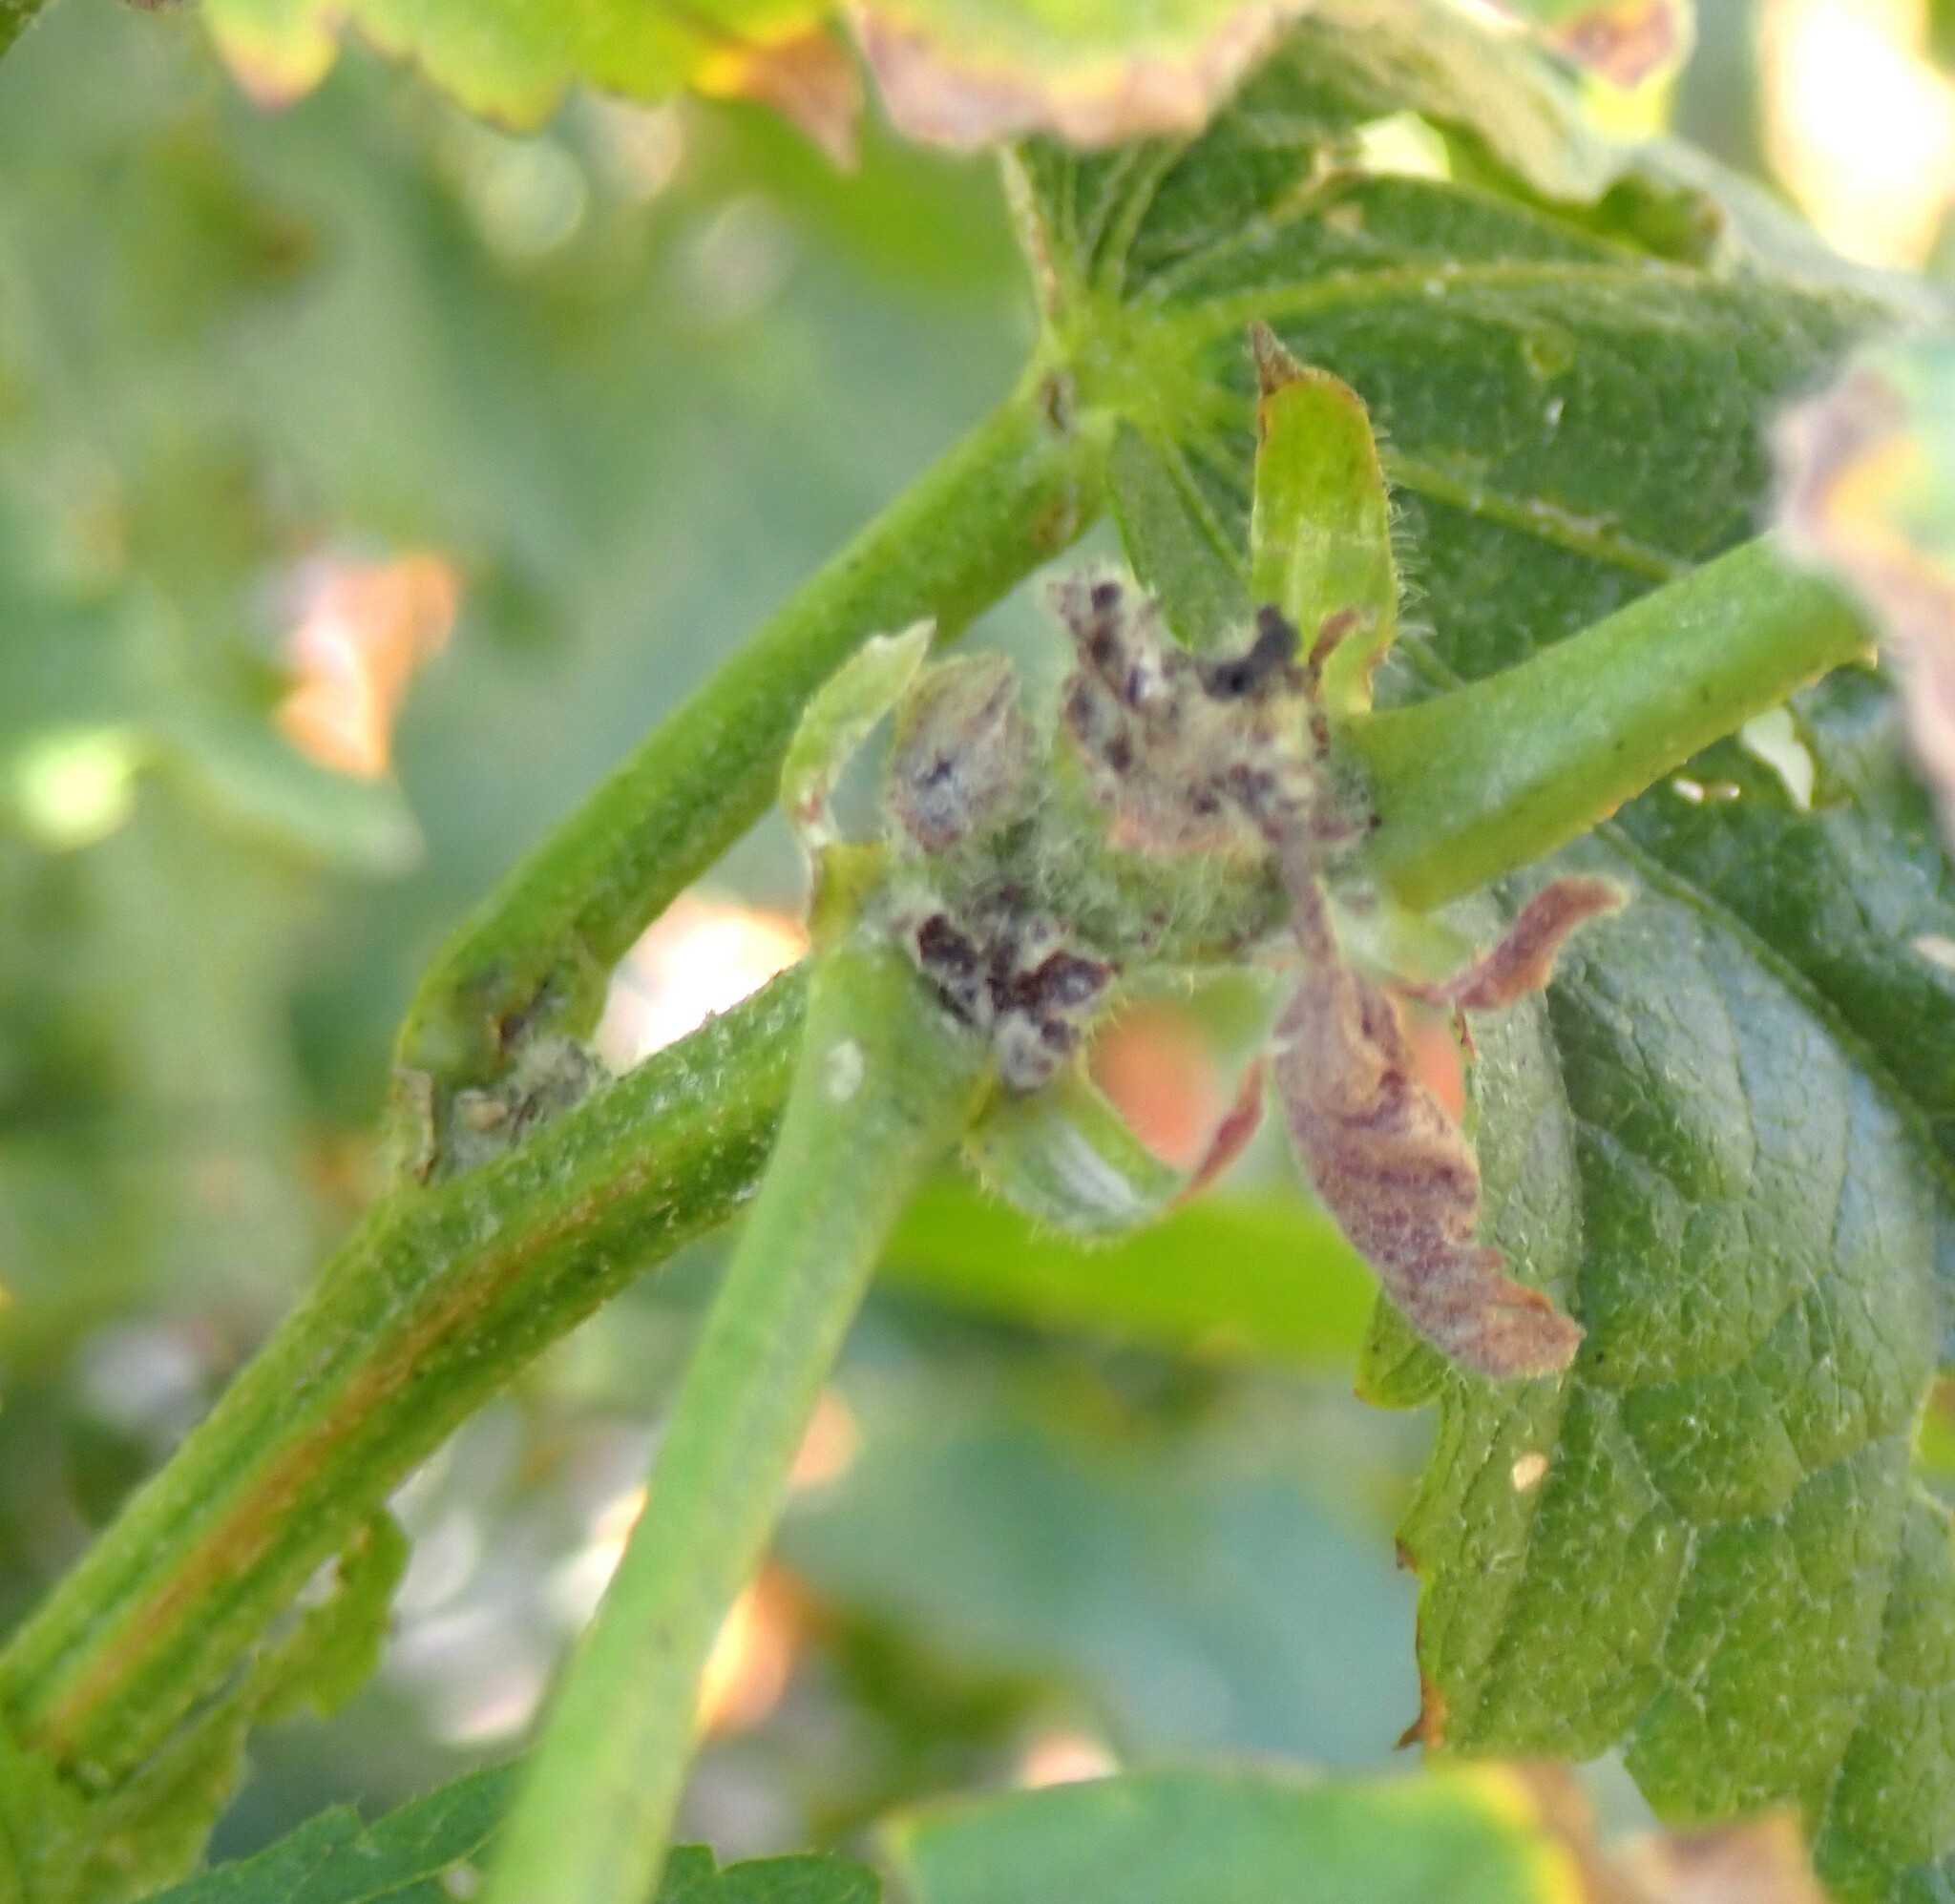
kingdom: Plantae
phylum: Tracheophyta
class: Magnoliopsida
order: Malvales
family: Malvaceae
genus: Iliamna
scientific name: Iliamna rivularis
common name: Wild hollyhock
